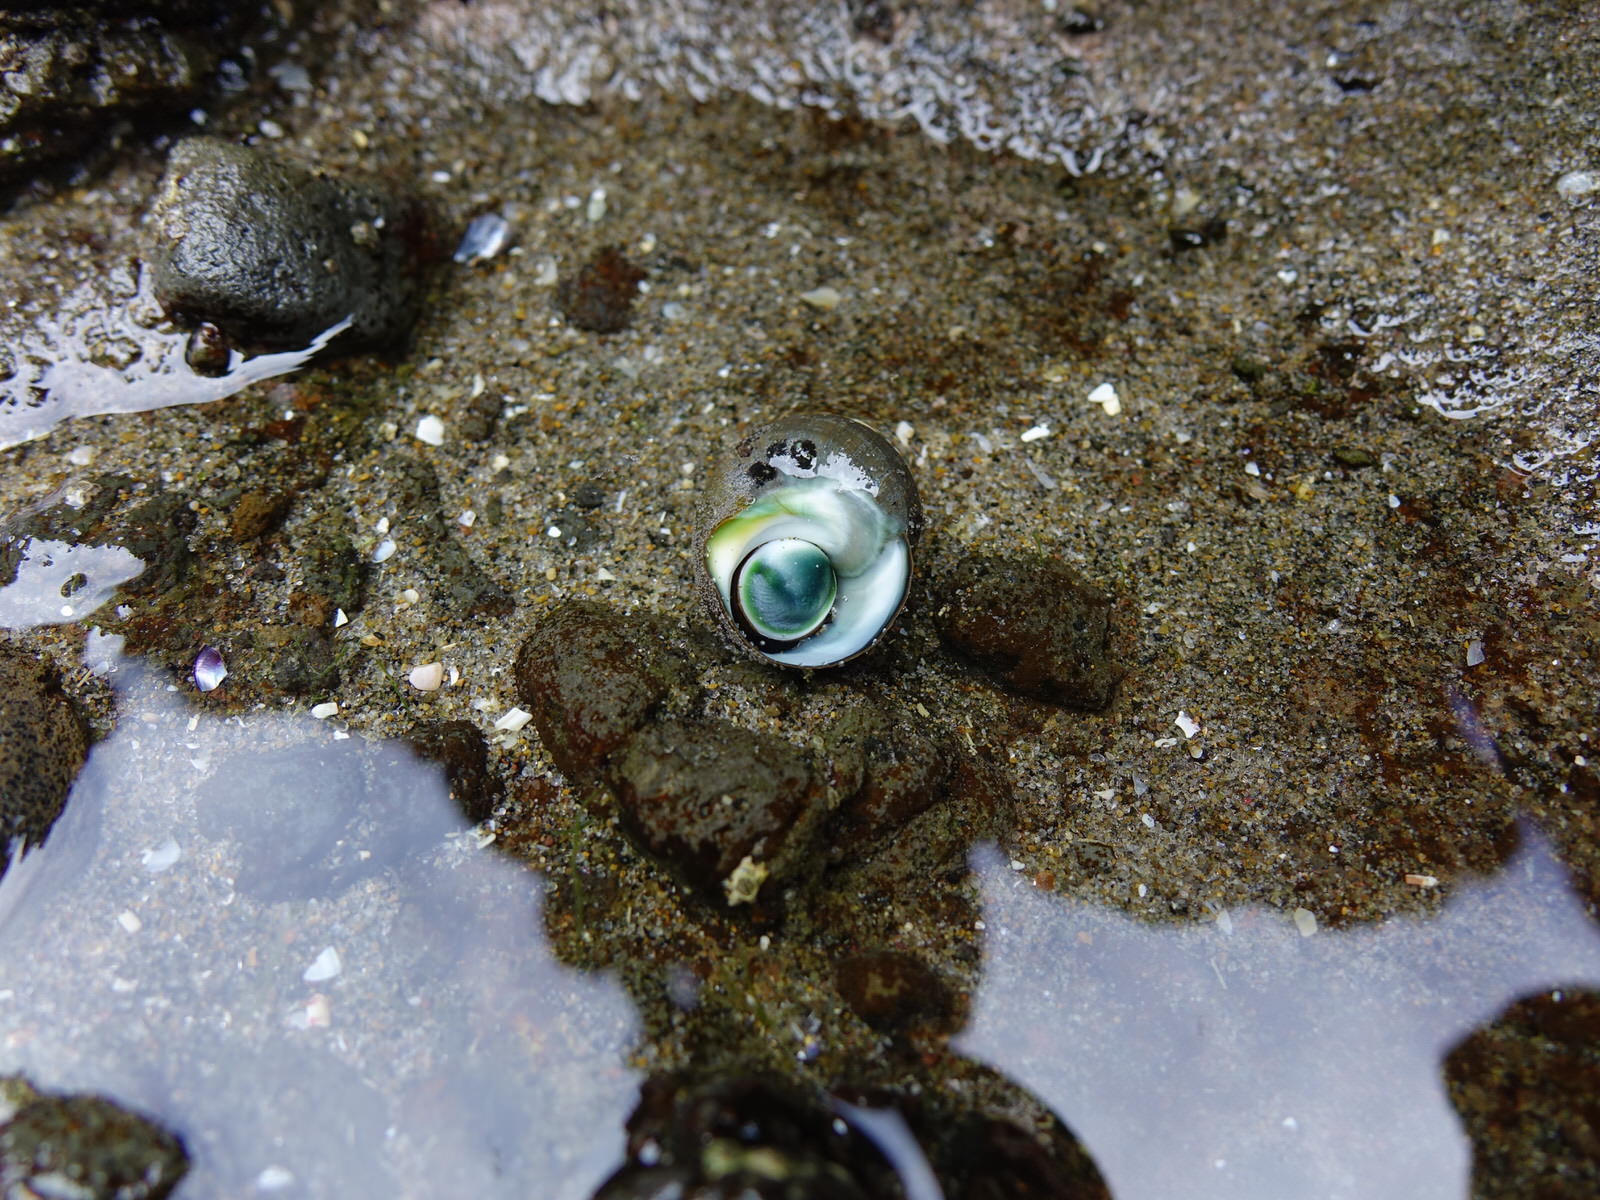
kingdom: Animalia
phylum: Mollusca
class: Gastropoda
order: Trochida
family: Turbinidae
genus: Lunella
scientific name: Lunella smaragda
